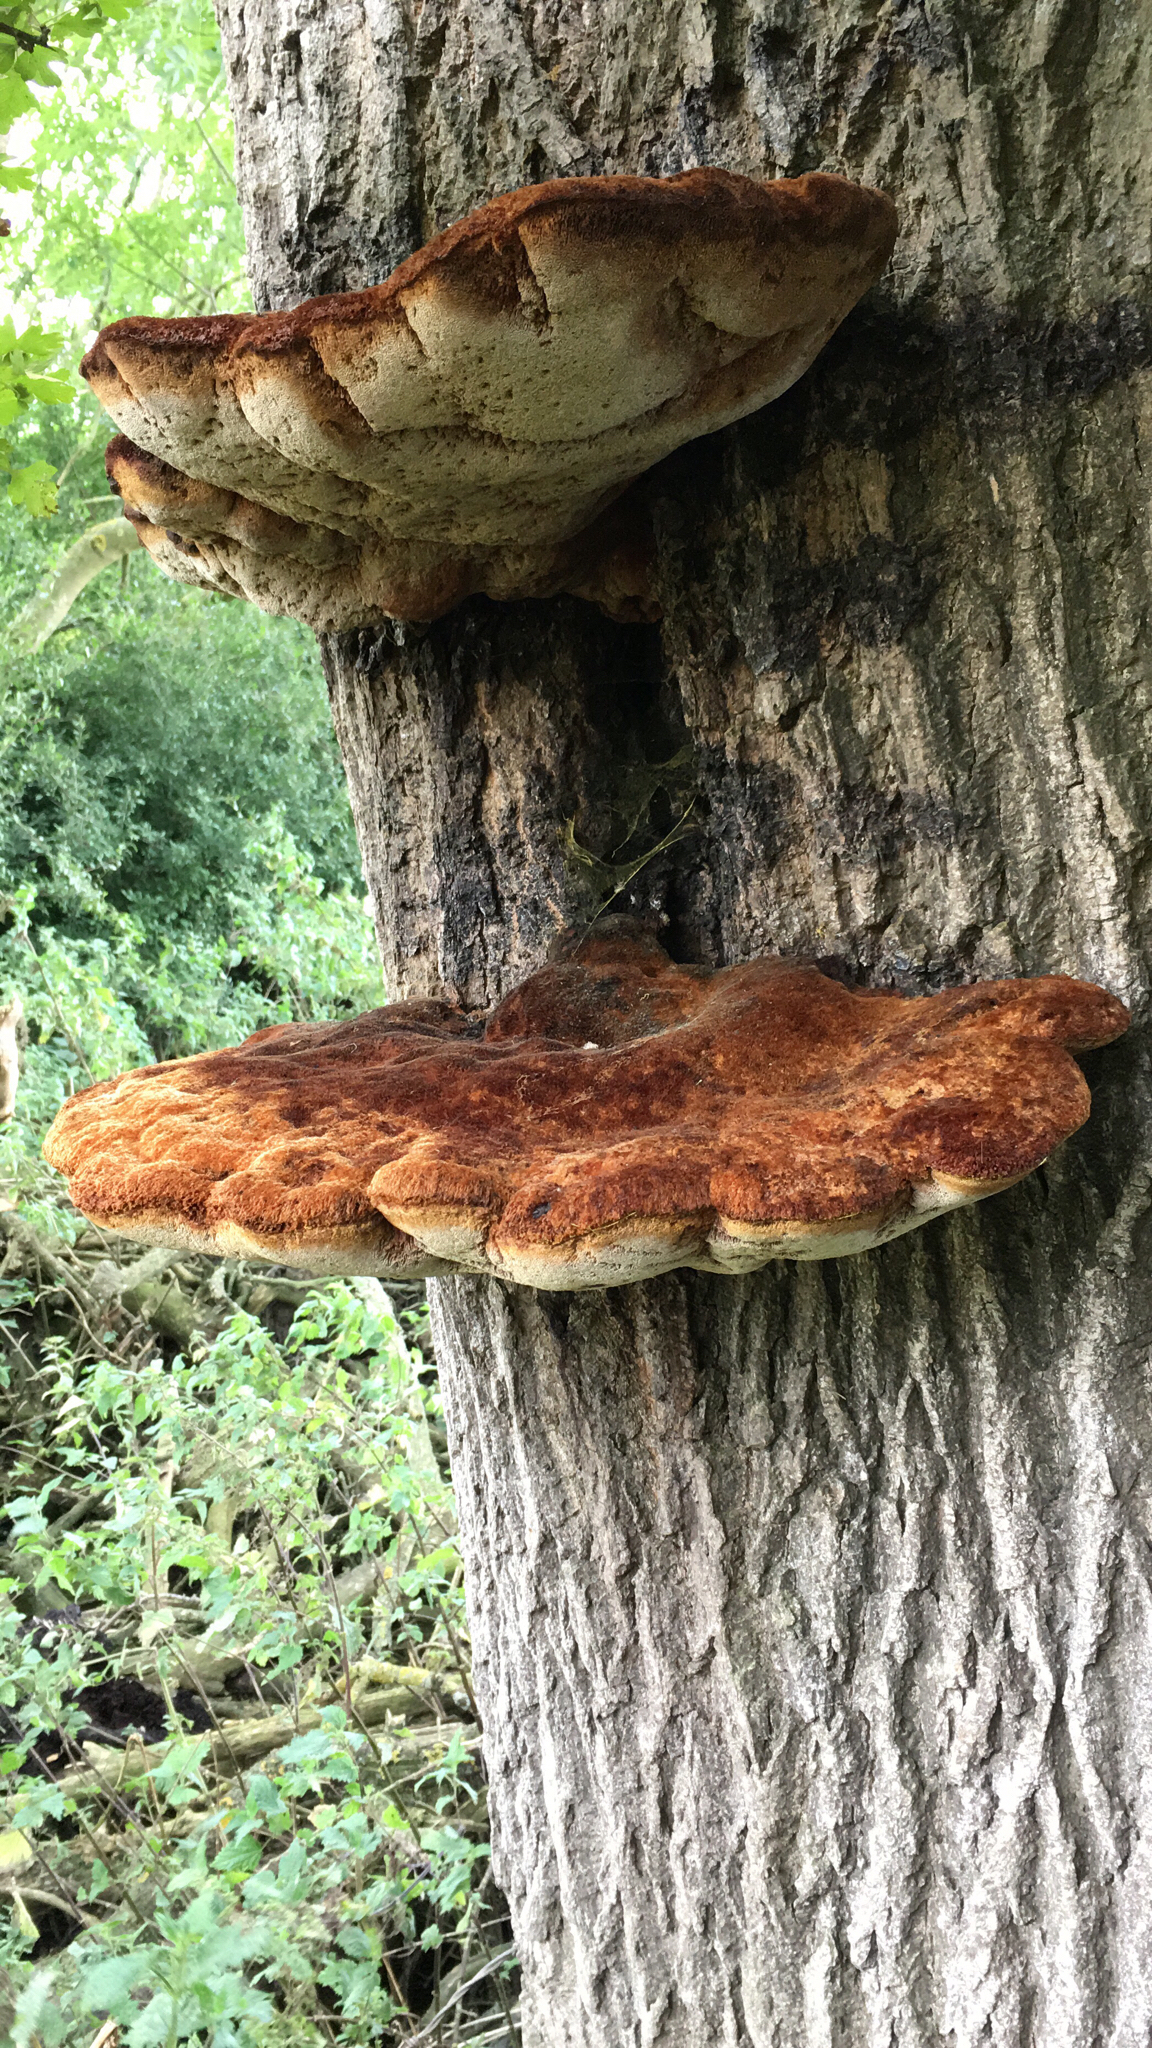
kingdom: Fungi
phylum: Basidiomycota
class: Agaricomycetes
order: Hymenochaetales
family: Hymenochaetaceae
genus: Inonotus
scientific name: Inonotus hispidus
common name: Shaggy bracket
